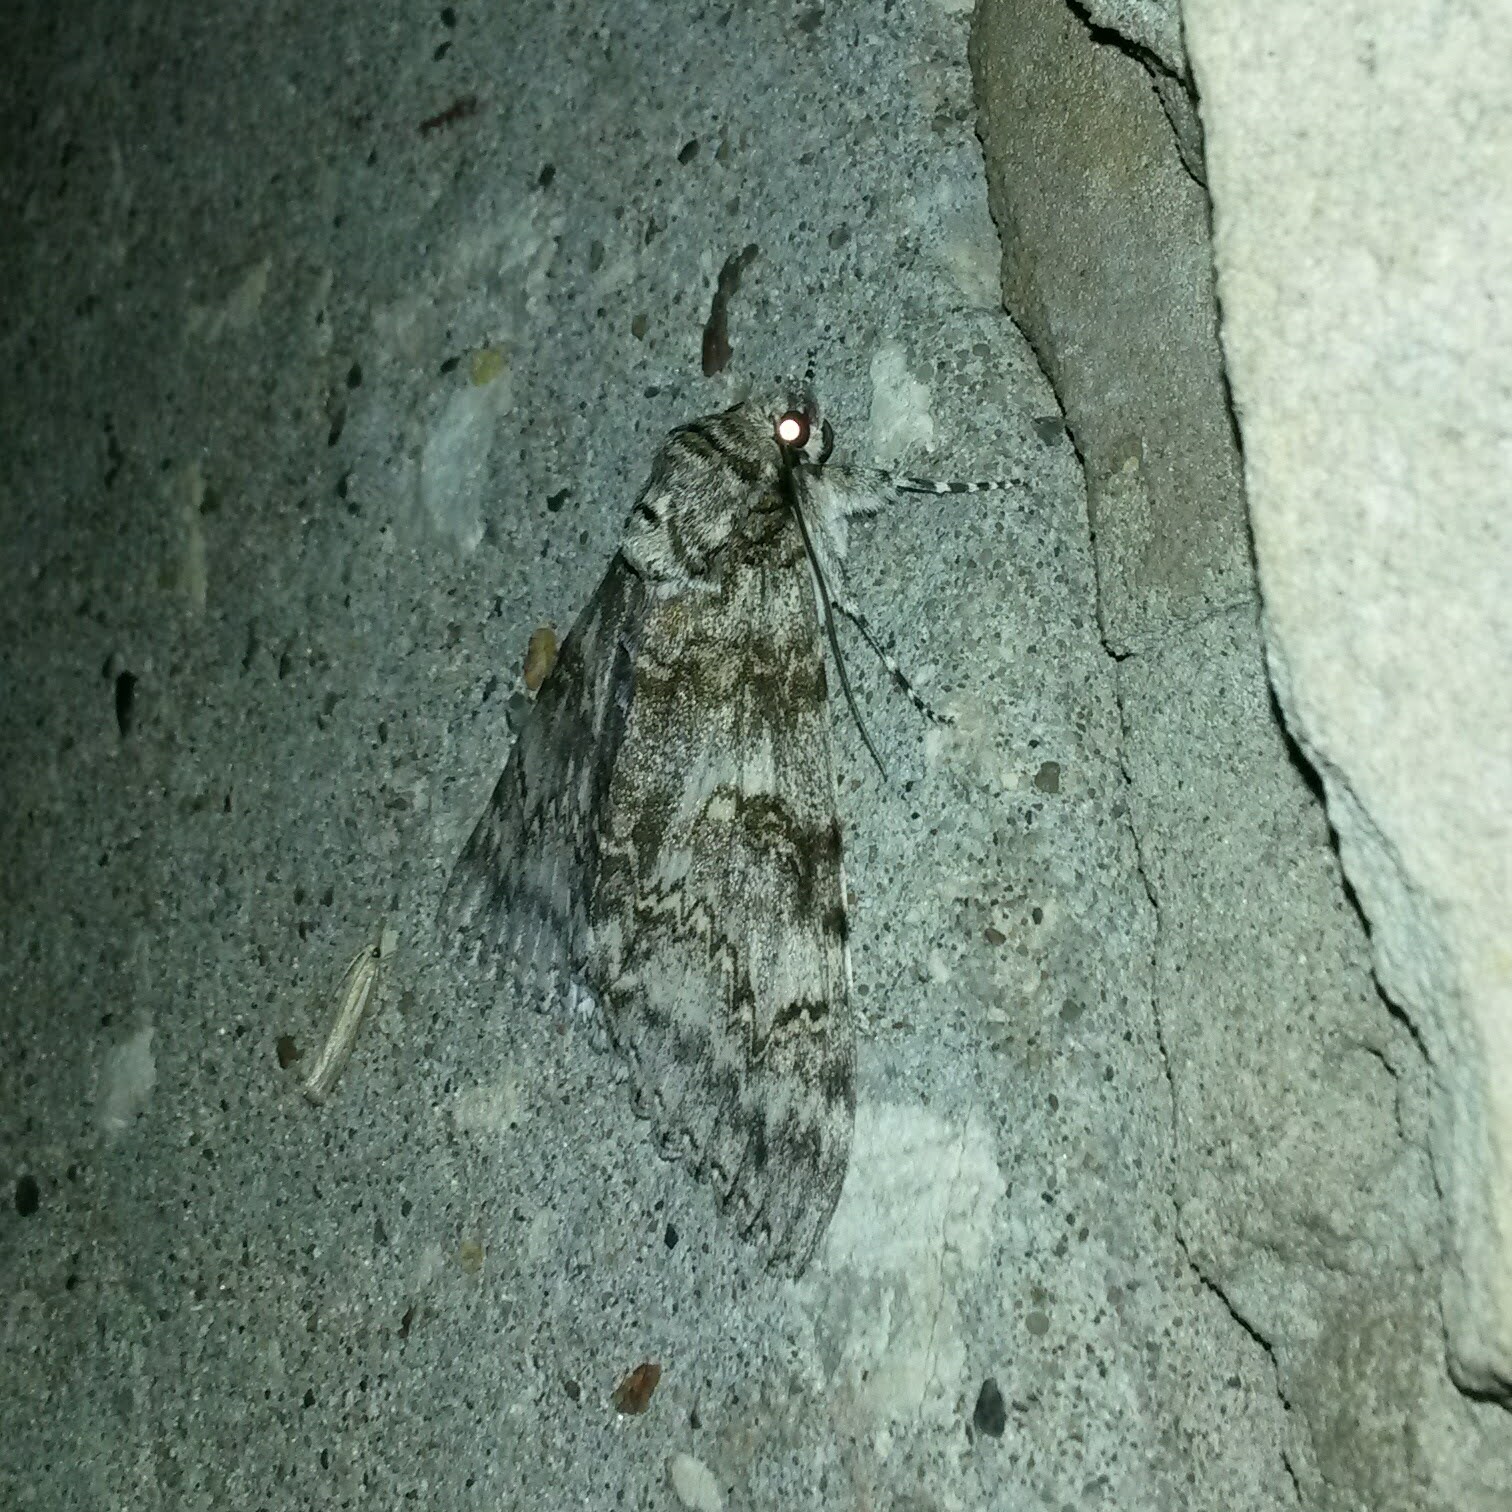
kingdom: Animalia
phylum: Arthropoda
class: Insecta
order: Lepidoptera
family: Erebidae
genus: Catocala
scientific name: Catocala fraxini
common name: Clifden nonpareil
